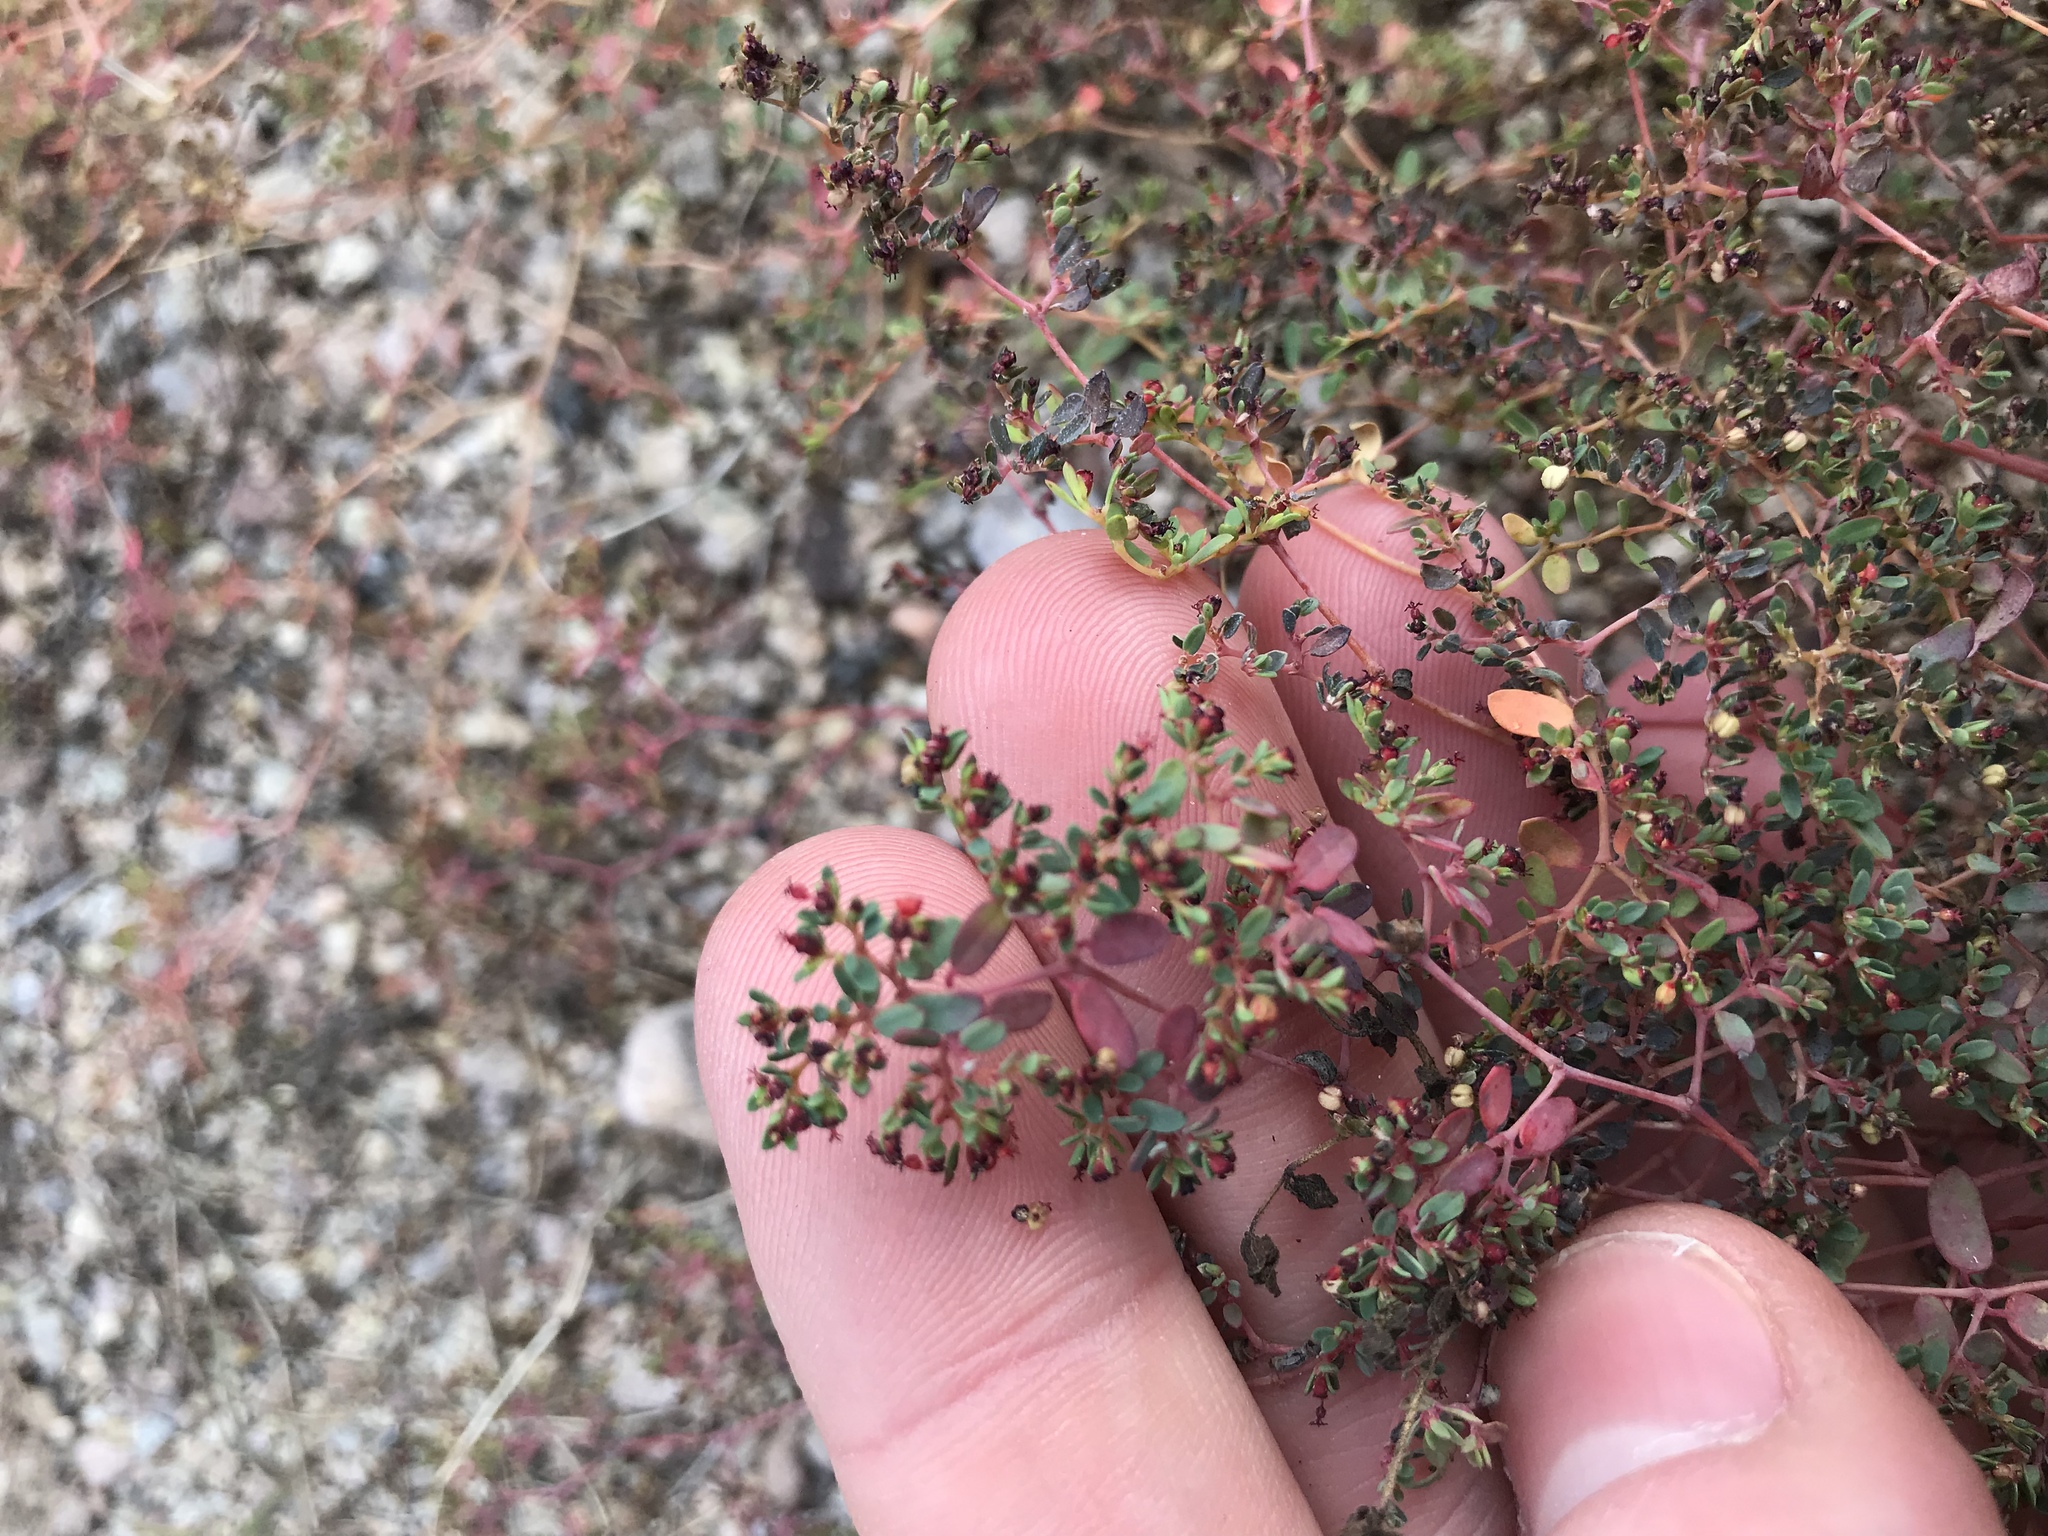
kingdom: Plantae
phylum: Tracheophyta
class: Magnoliopsida
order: Malpighiales
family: Euphorbiaceae
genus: Euphorbia
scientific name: Euphorbia polycarpa
